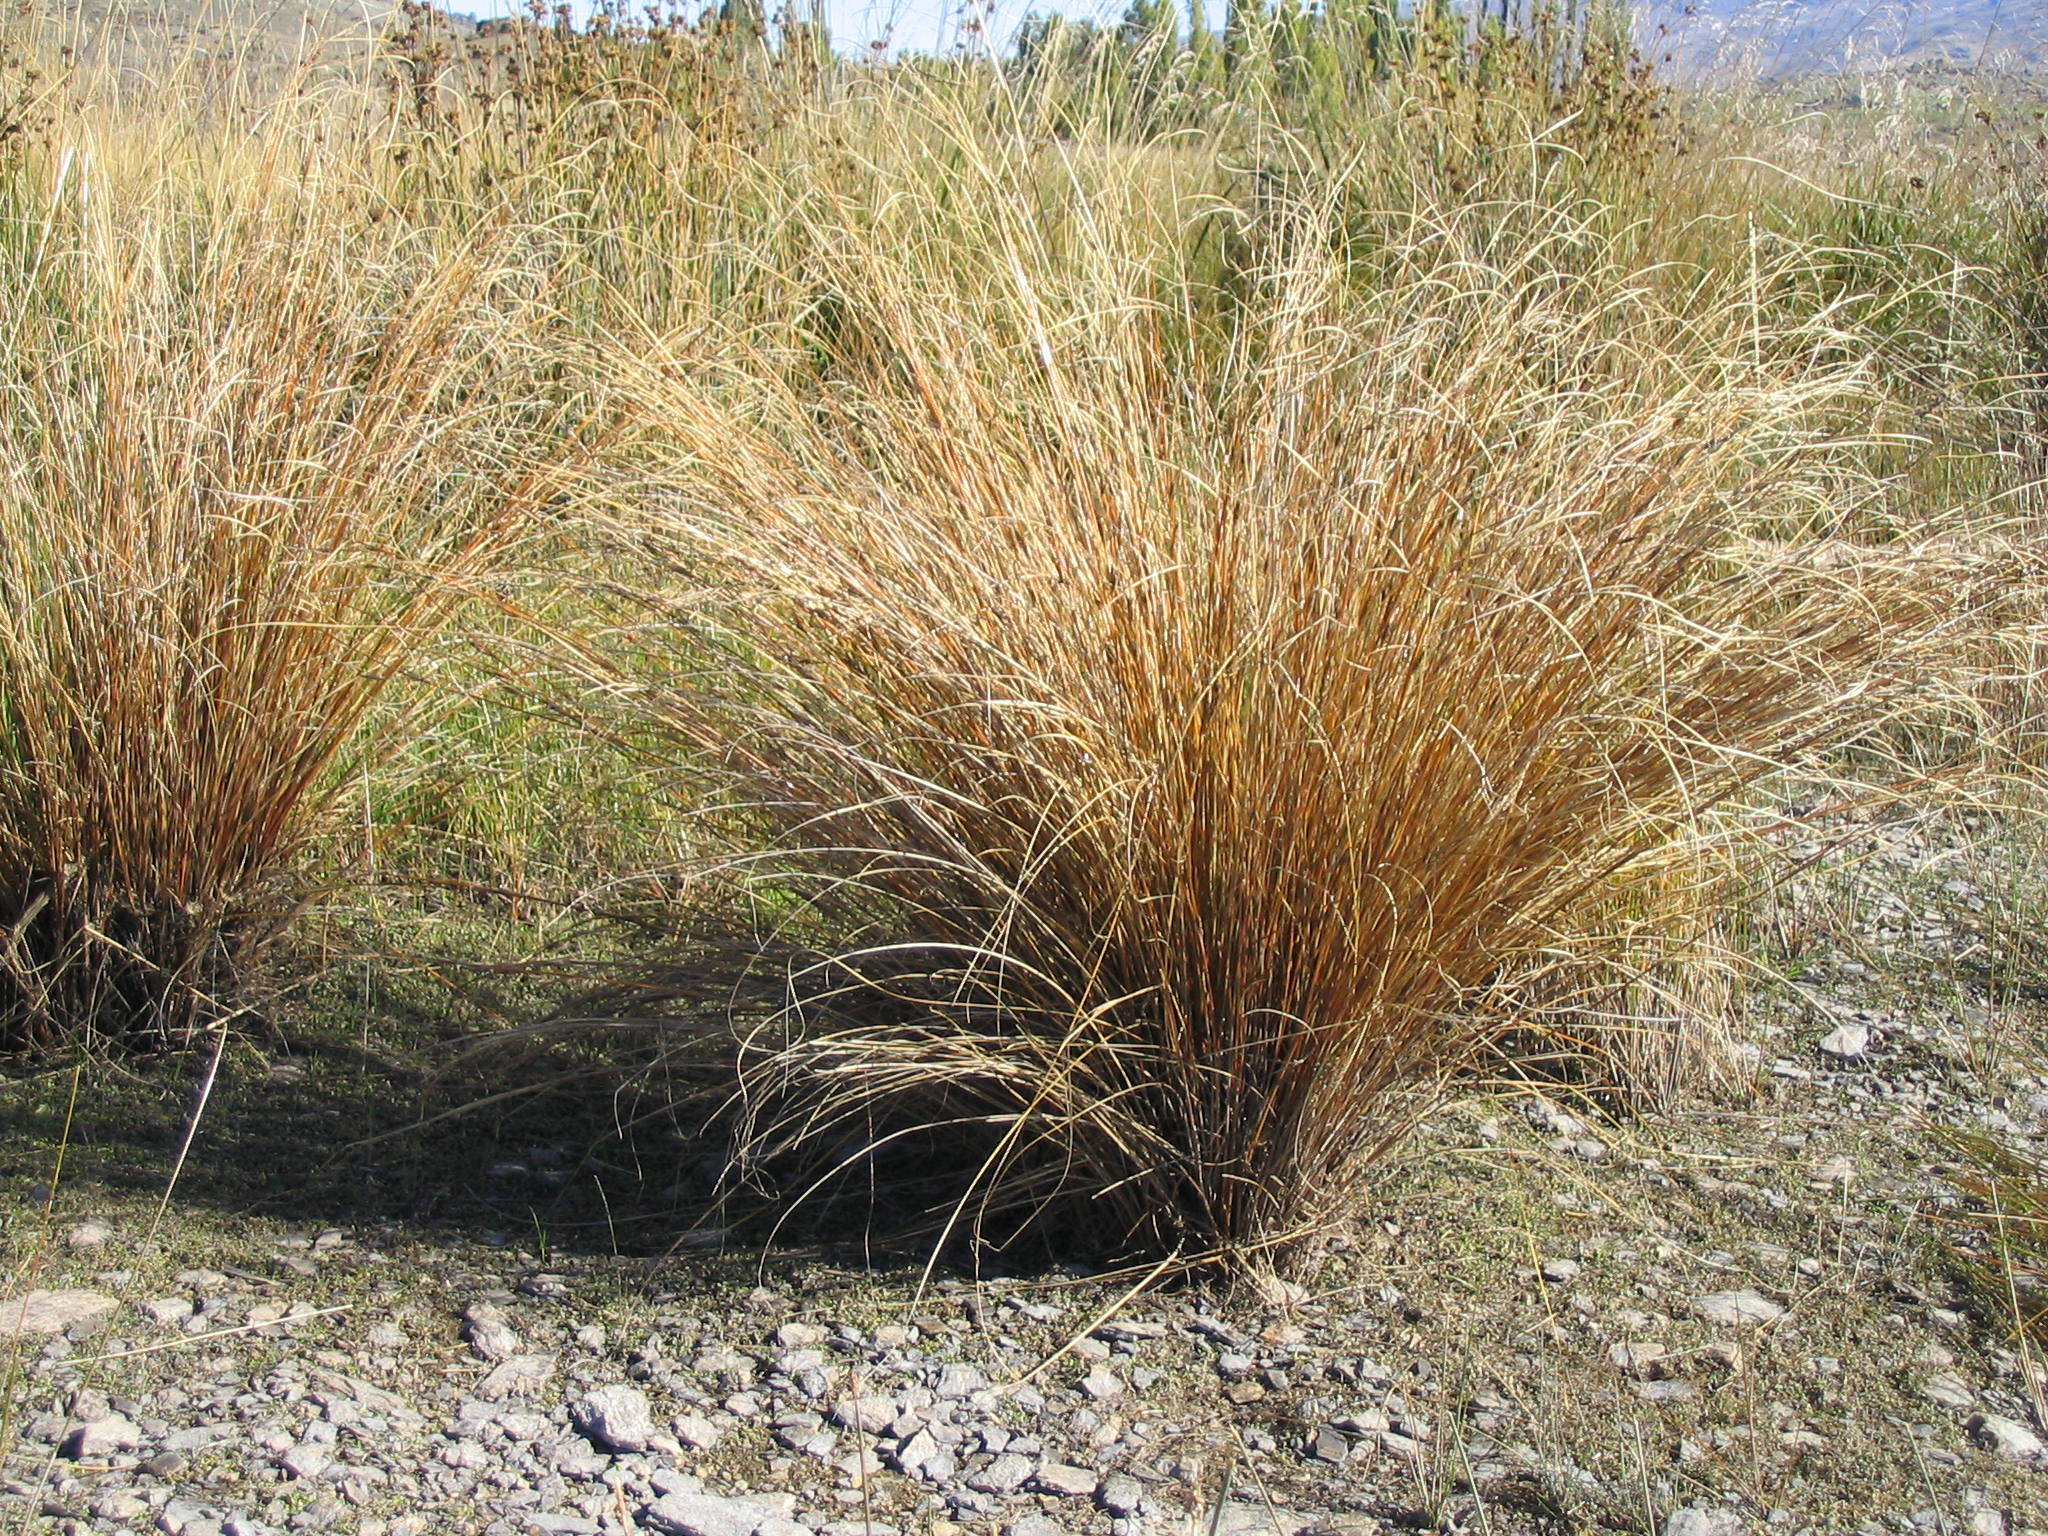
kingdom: Plantae
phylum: Tracheophyta
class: Liliopsida
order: Poales
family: Cyperaceae
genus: Carex
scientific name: Carex buchananii
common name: Leatherleaf sedge
